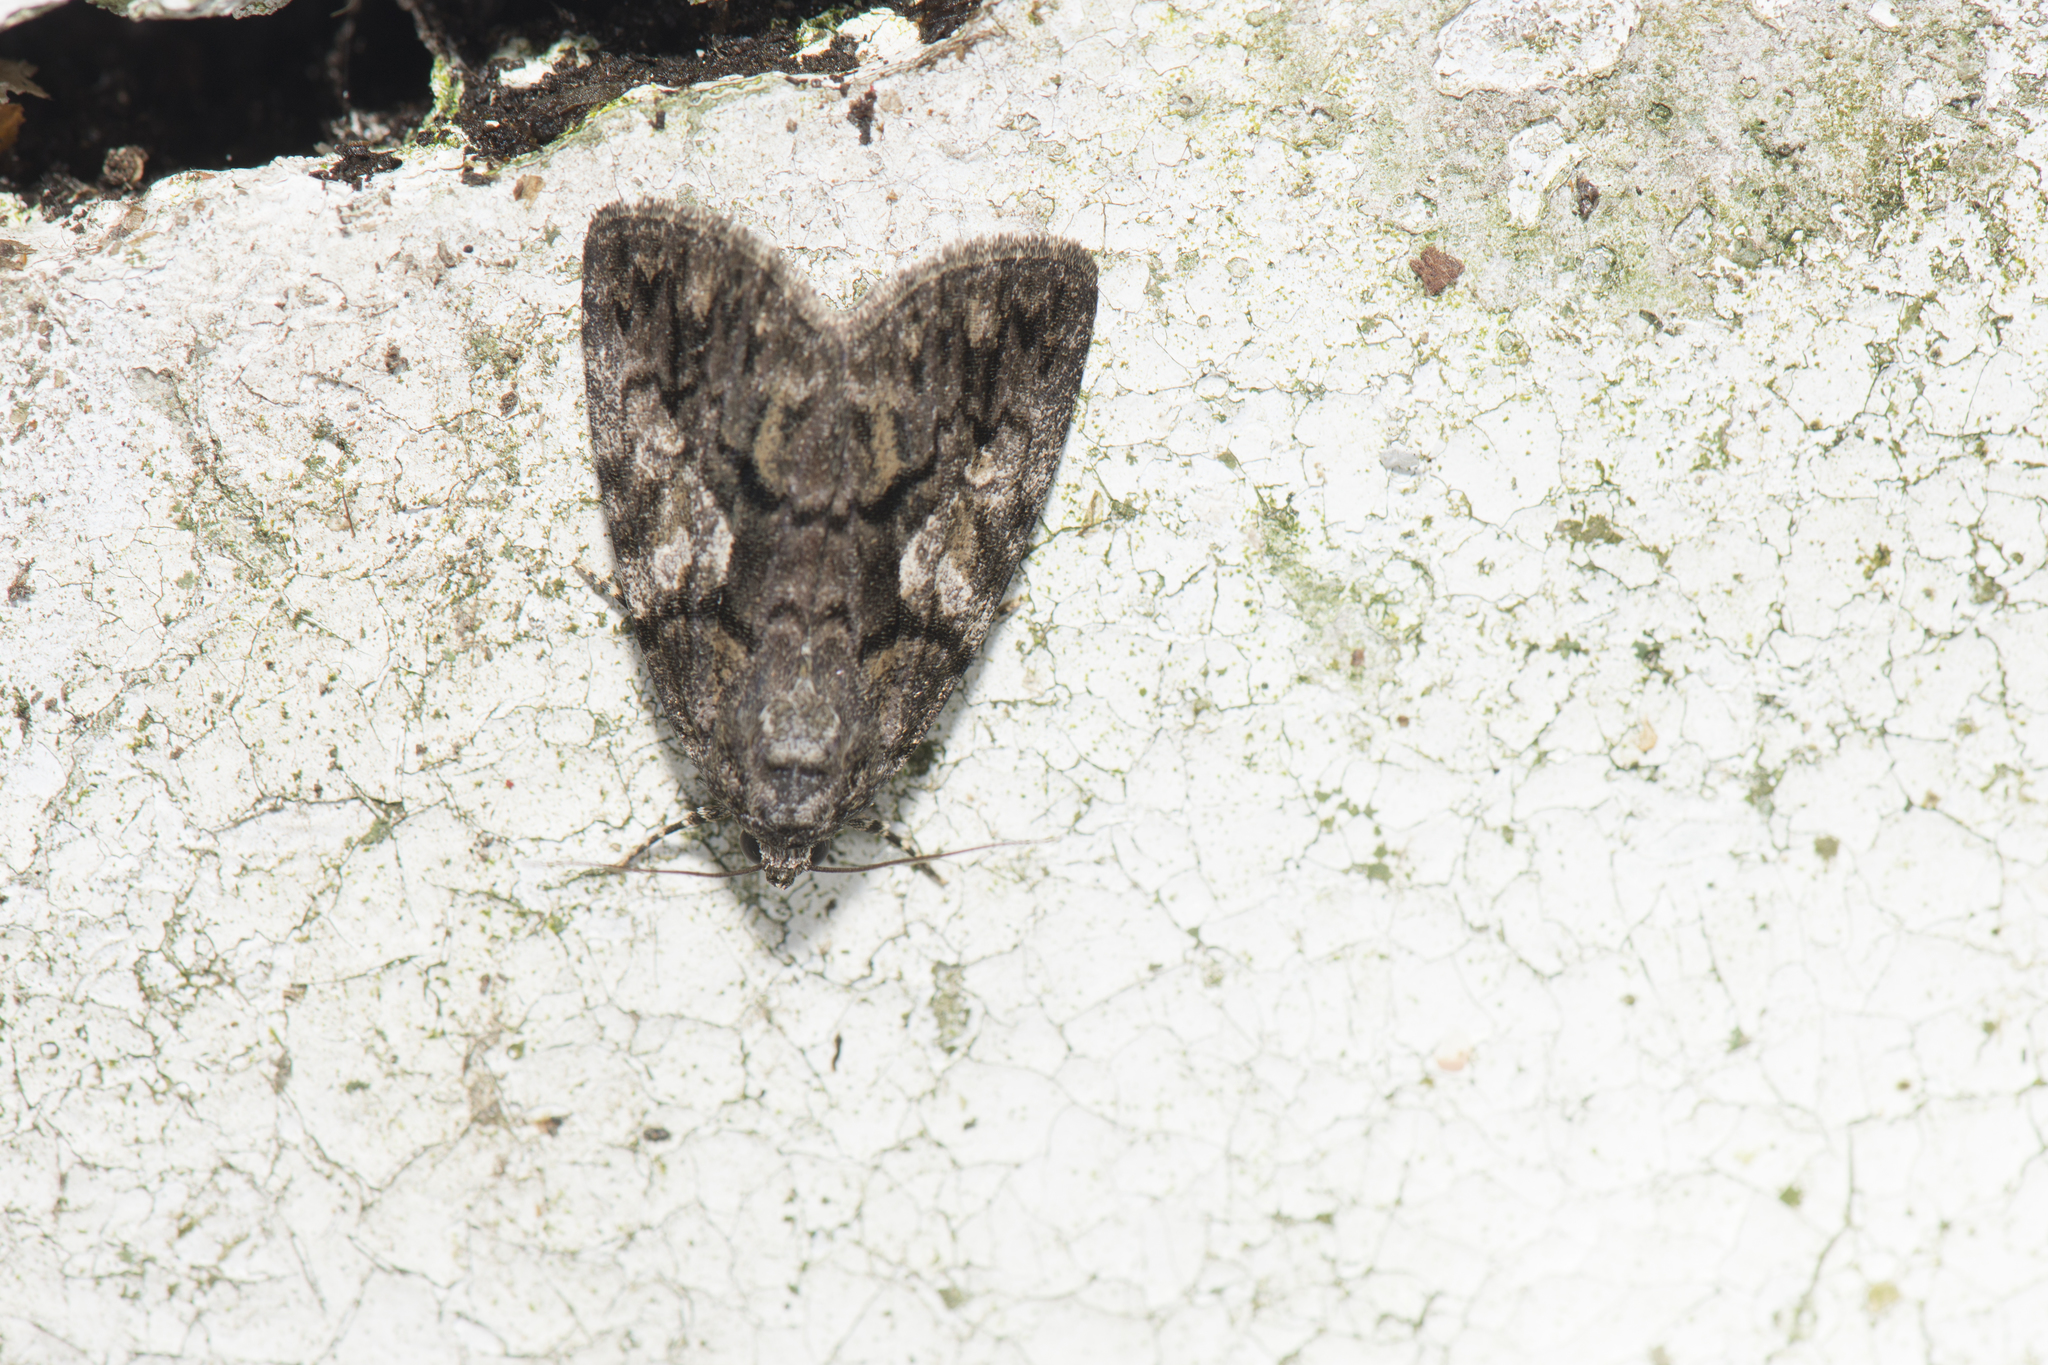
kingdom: Animalia
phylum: Arthropoda
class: Insecta
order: Lepidoptera
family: Noctuidae
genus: Gerbathodes
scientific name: Gerbathodes lichenodes
